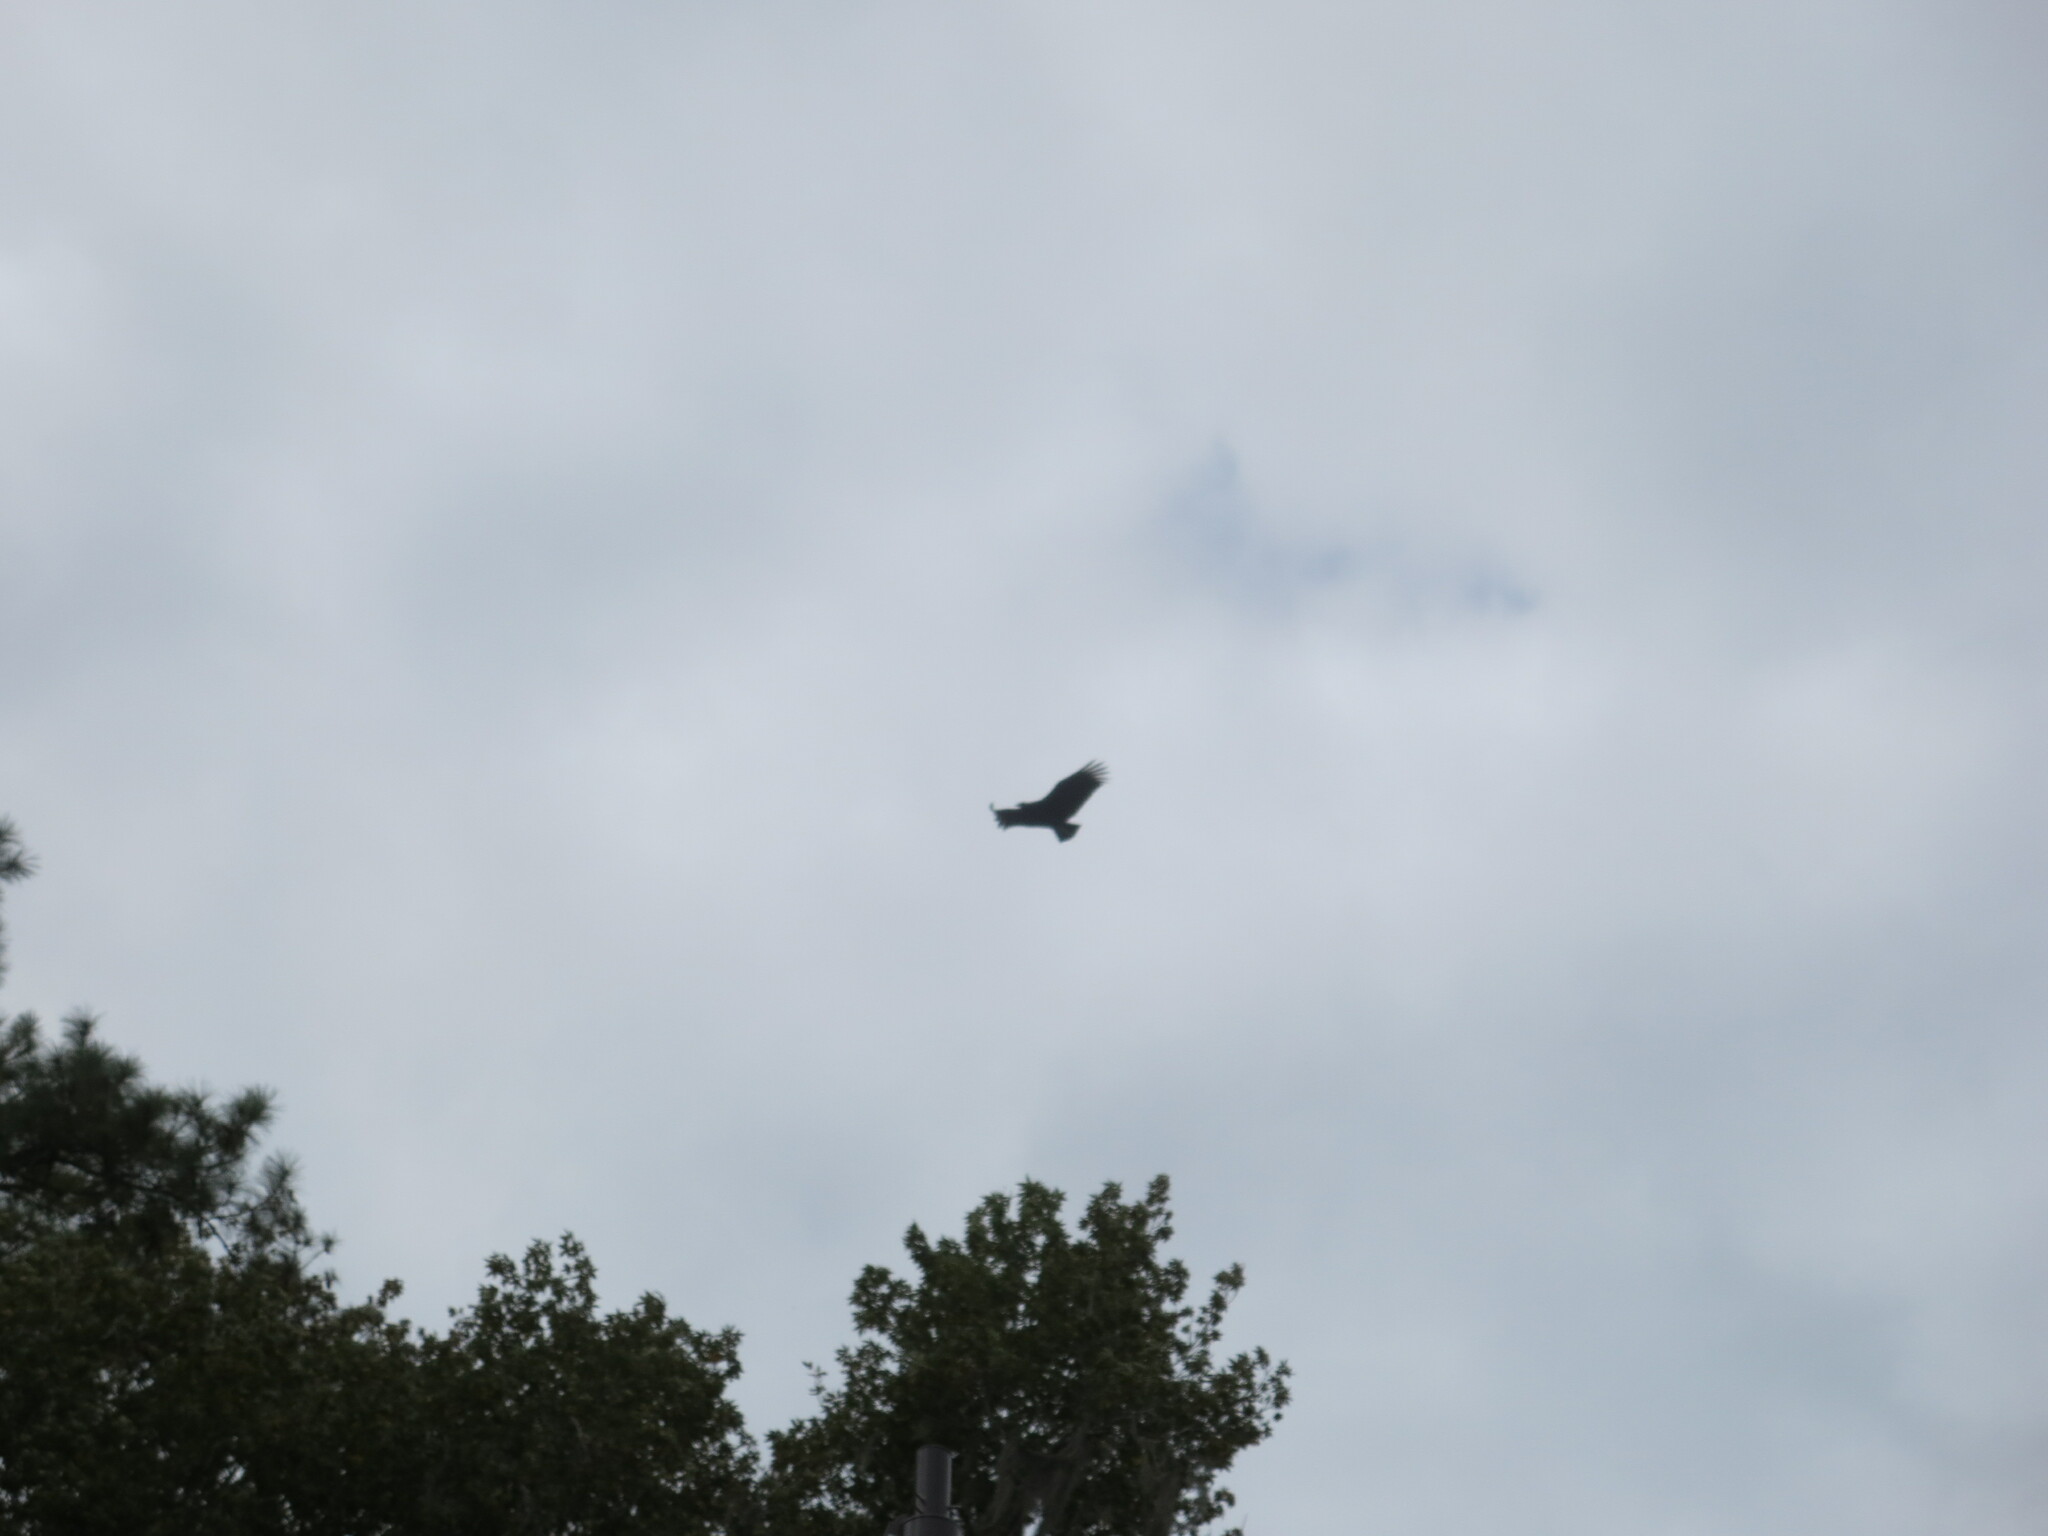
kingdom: Animalia
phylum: Chordata
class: Aves
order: Accipitriformes
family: Cathartidae
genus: Coragyps
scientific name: Coragyps atratus
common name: Black vulture
